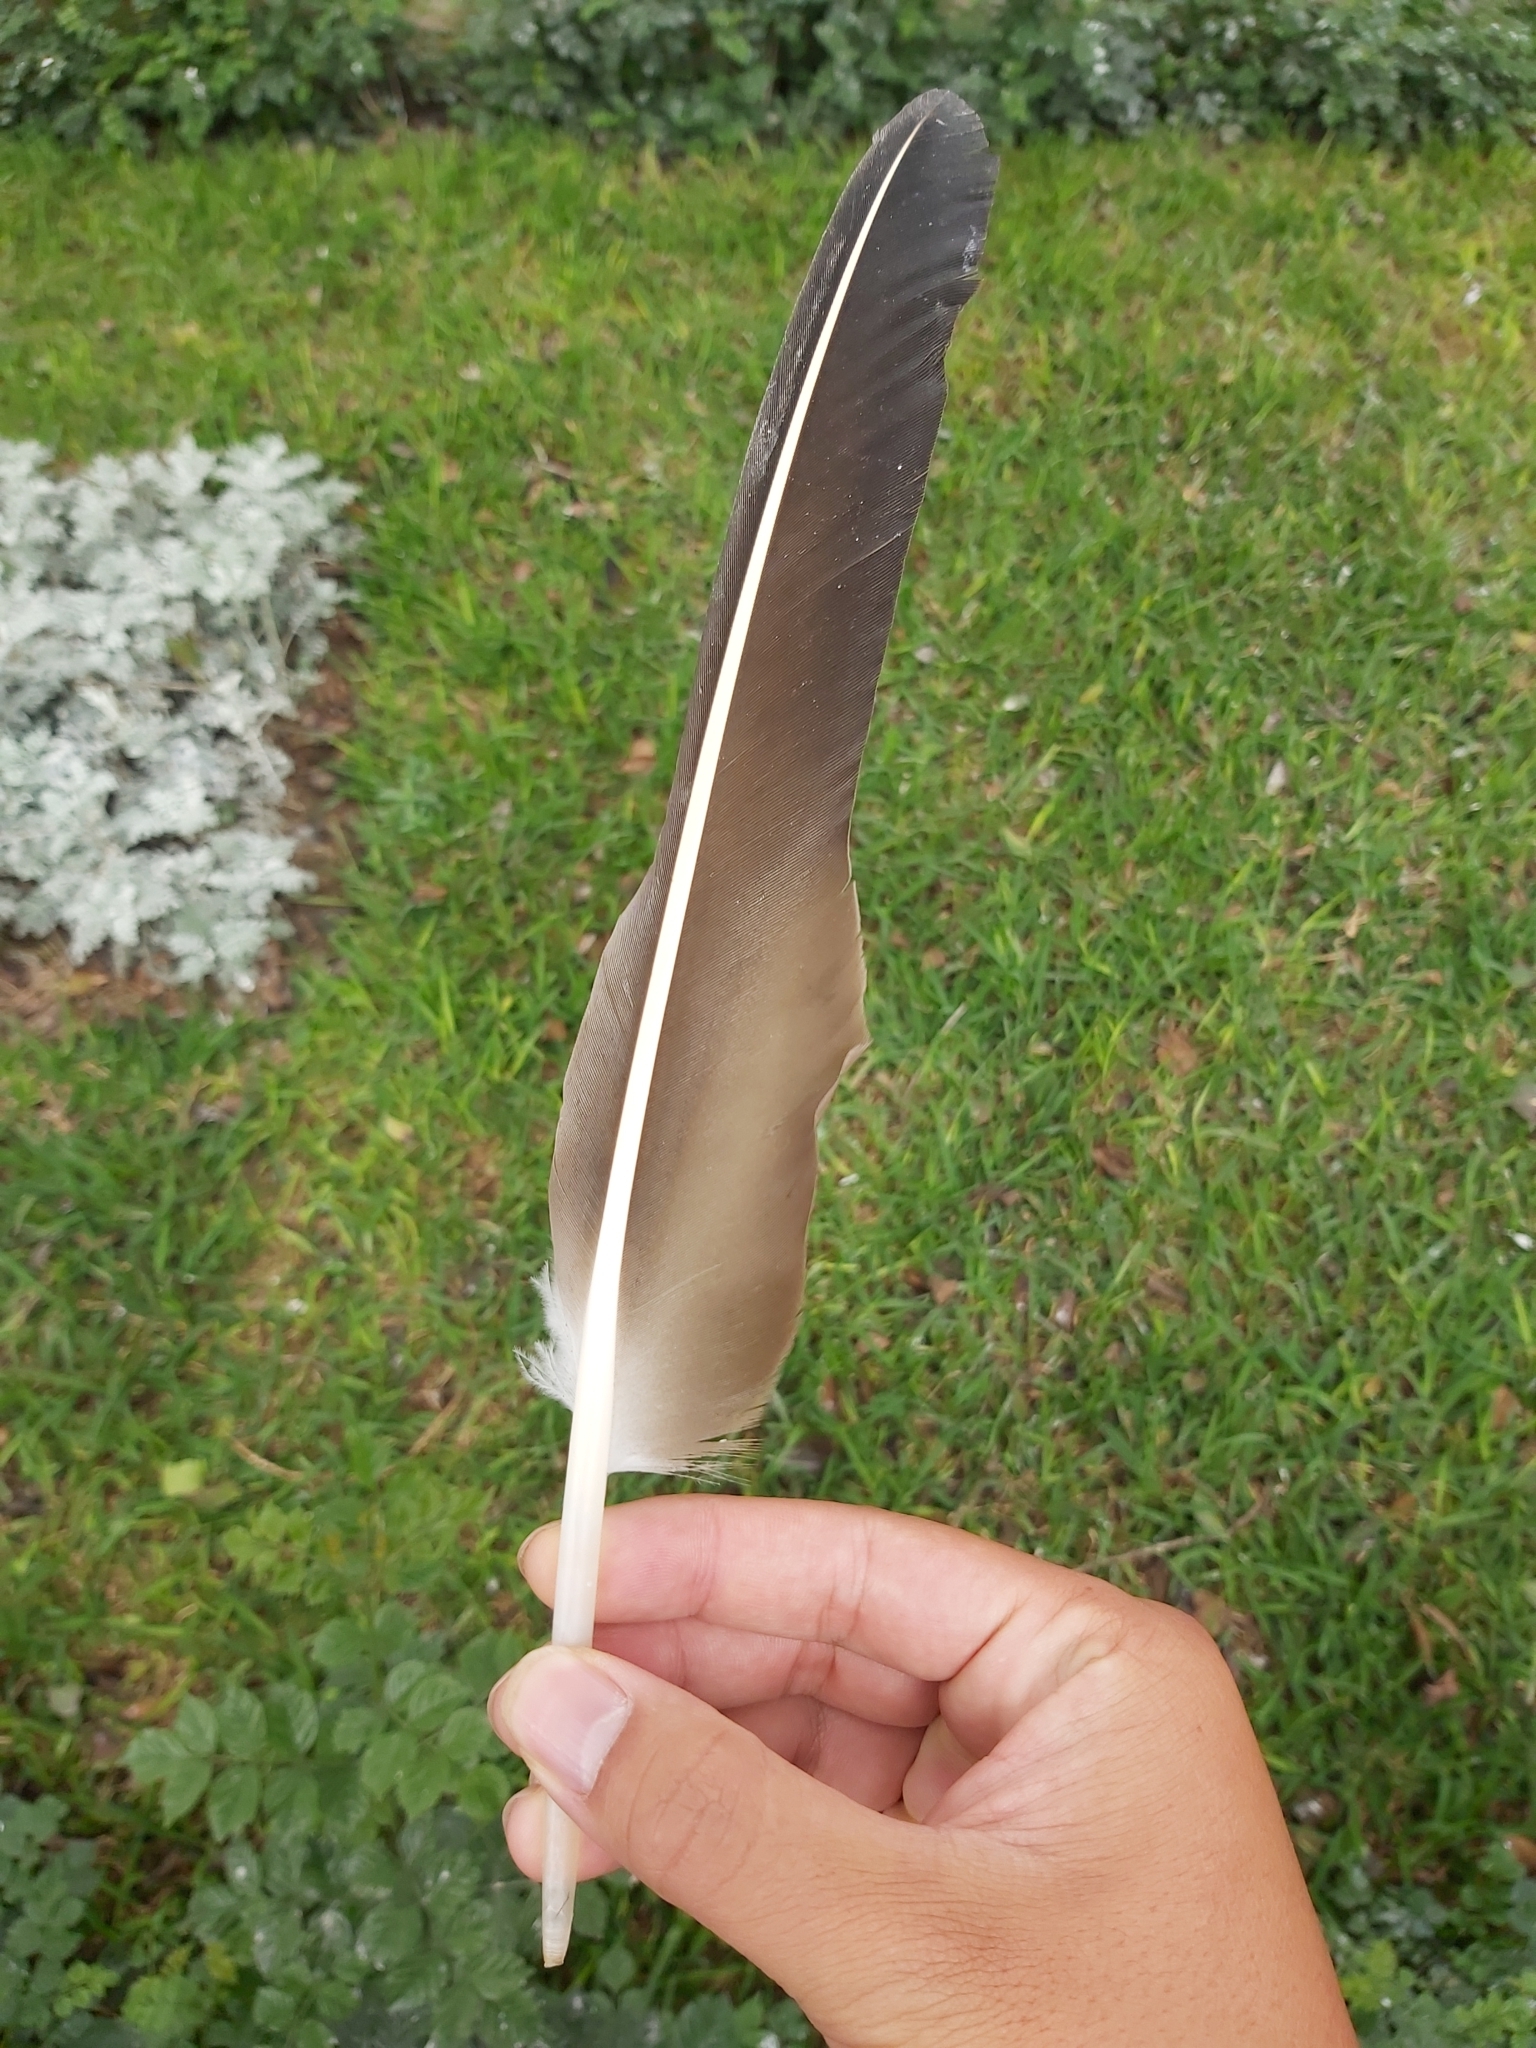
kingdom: Animalia
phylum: Chordata
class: Aves
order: Accipitriformes
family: Cathartidae
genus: Coragyps
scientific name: Coragyps atratus
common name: Black vulture
